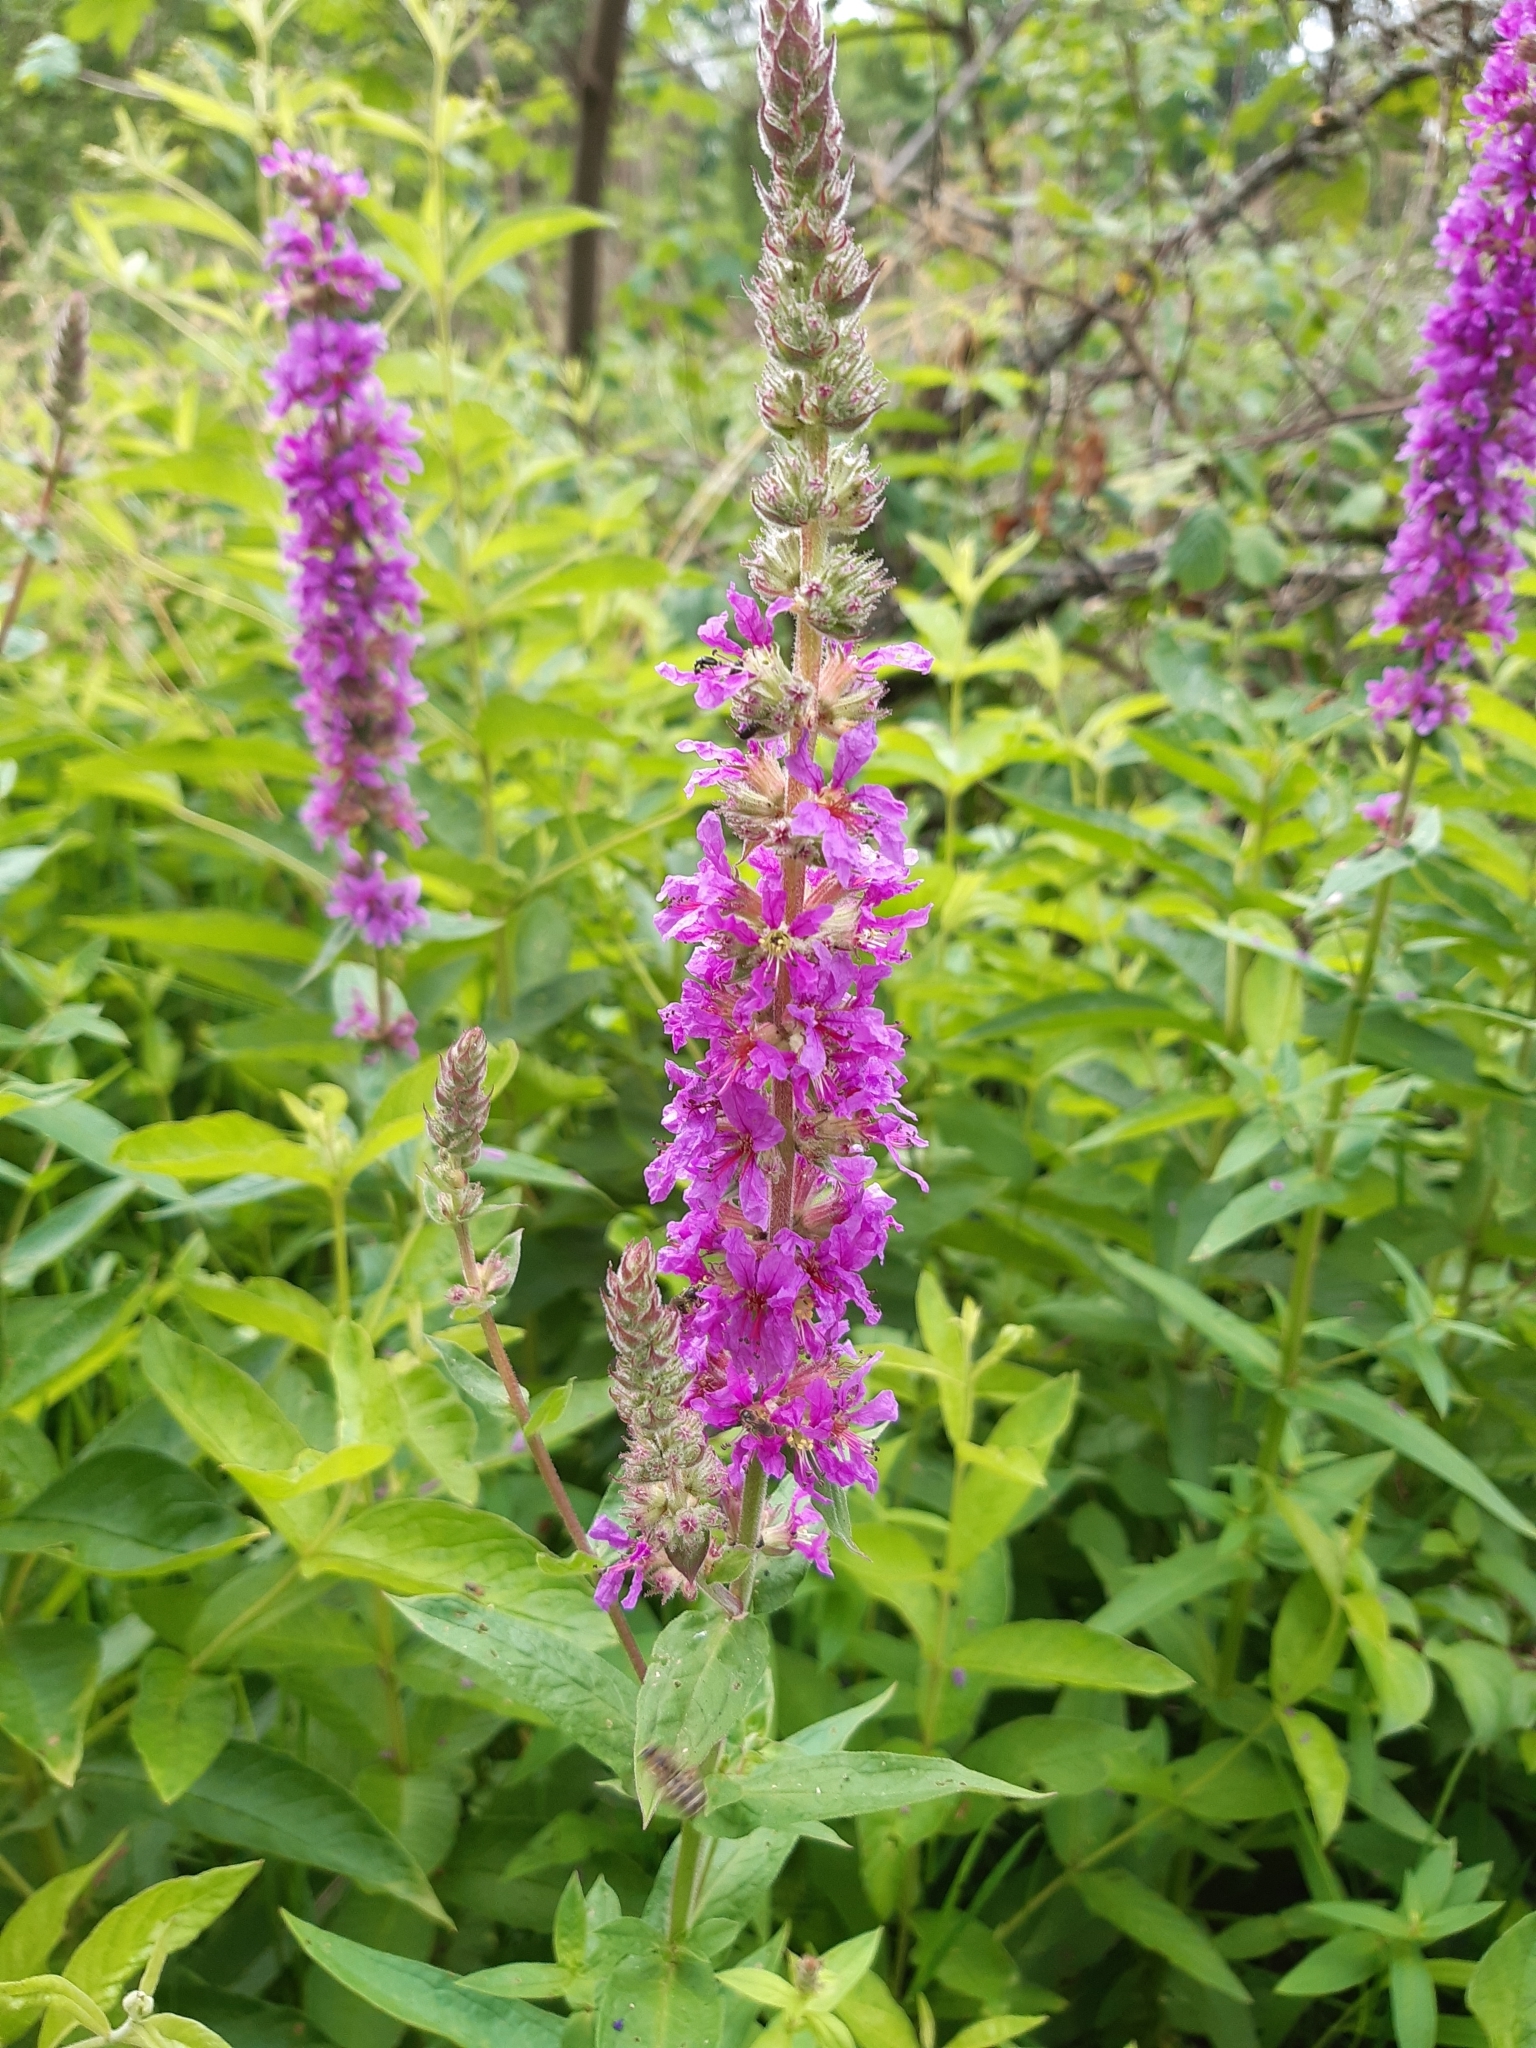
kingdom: Plantae
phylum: Tracheophyta
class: Magnoliopsida
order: Myrtales
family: Lythraceae
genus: Lythrum
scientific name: Lythrum salicaria
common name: Purple loosestrife
